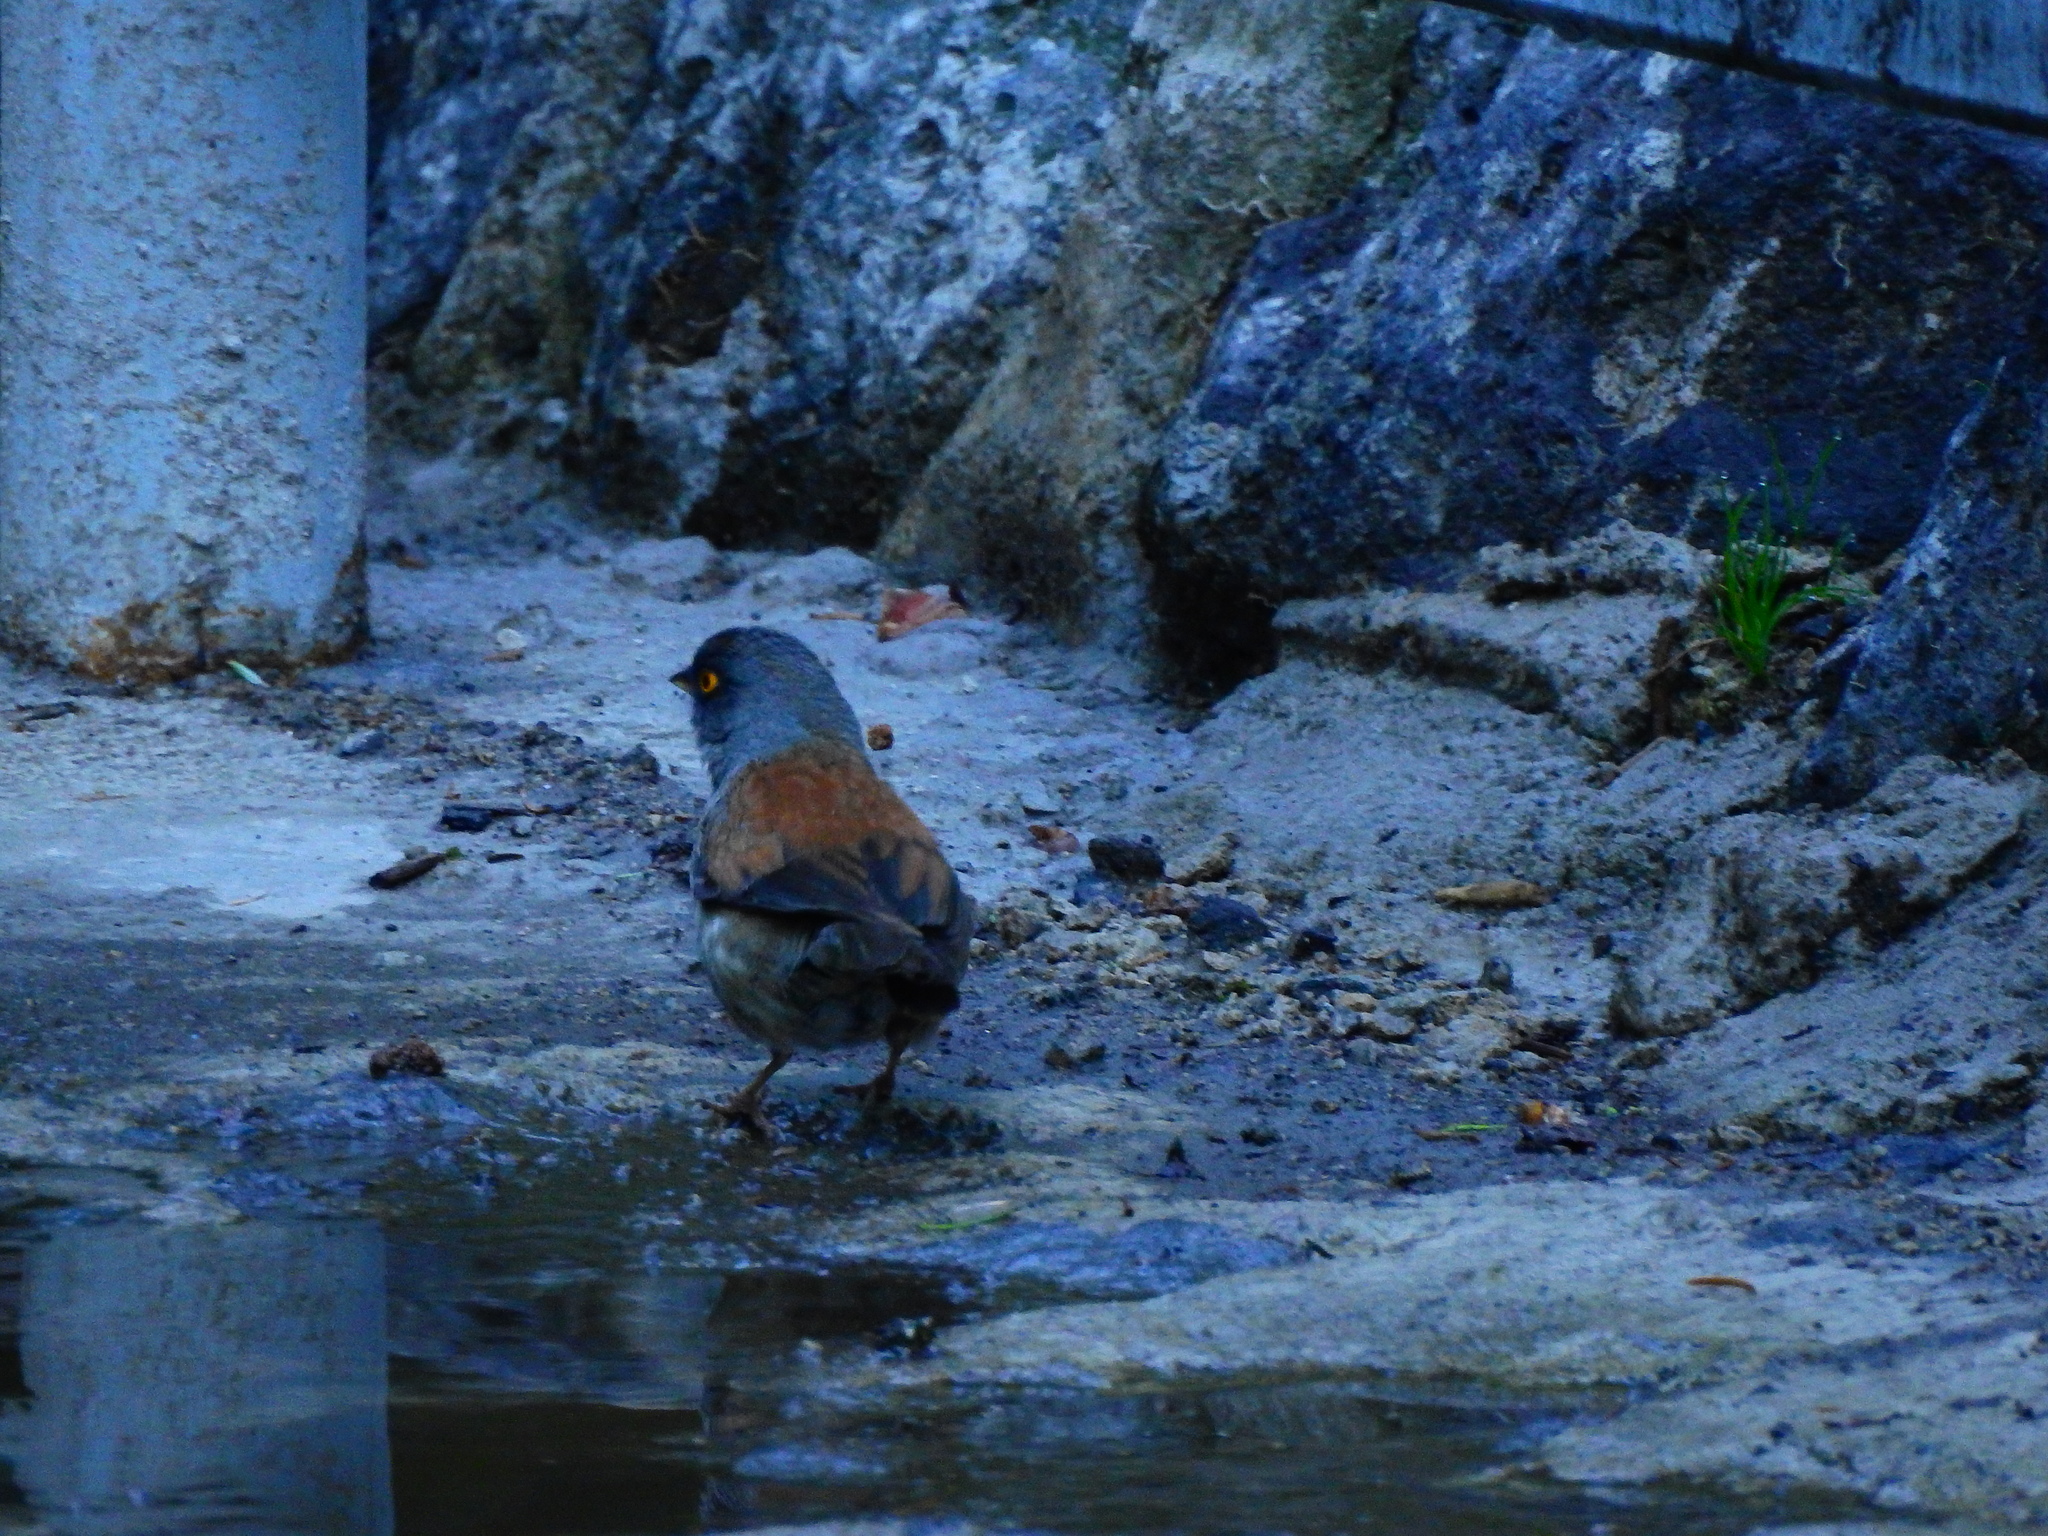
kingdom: Animalia
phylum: Chordata
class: Aves
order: Passeriformes
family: Passerellidae
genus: Junco
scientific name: Junco phaeonotus
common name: Yellow-eyed junco
